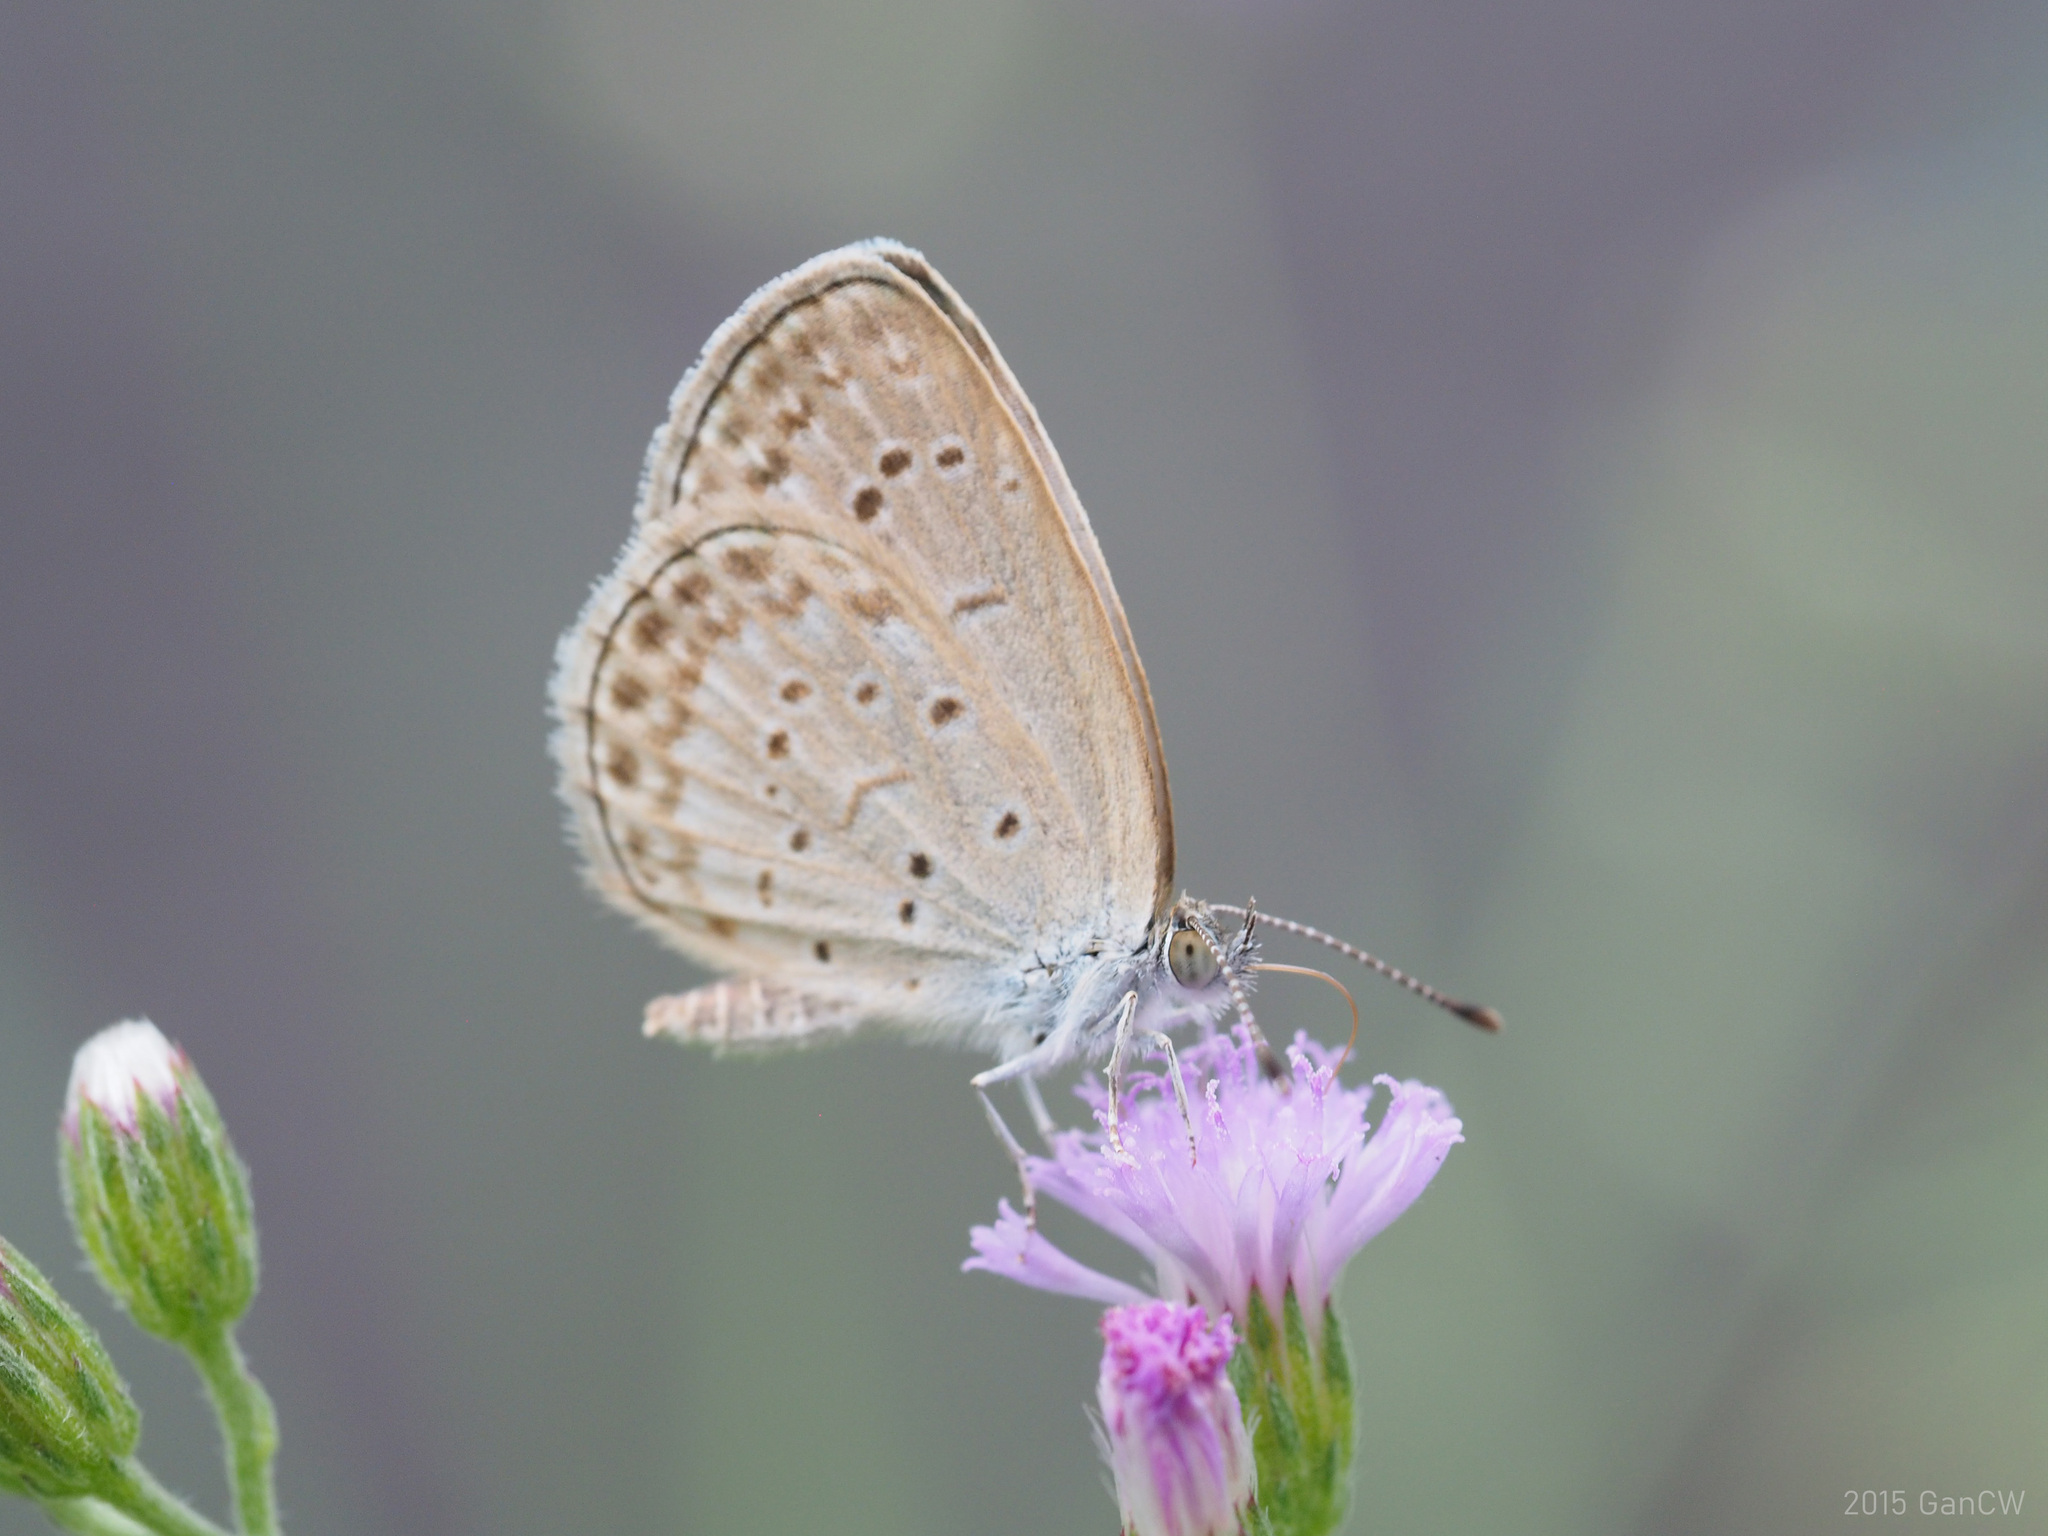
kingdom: Animalia
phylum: Arthropoda
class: Insecta
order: Lepidoptera
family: Lycaenidae
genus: Pseudozizeeria
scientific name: Pseudozizeeria maha
